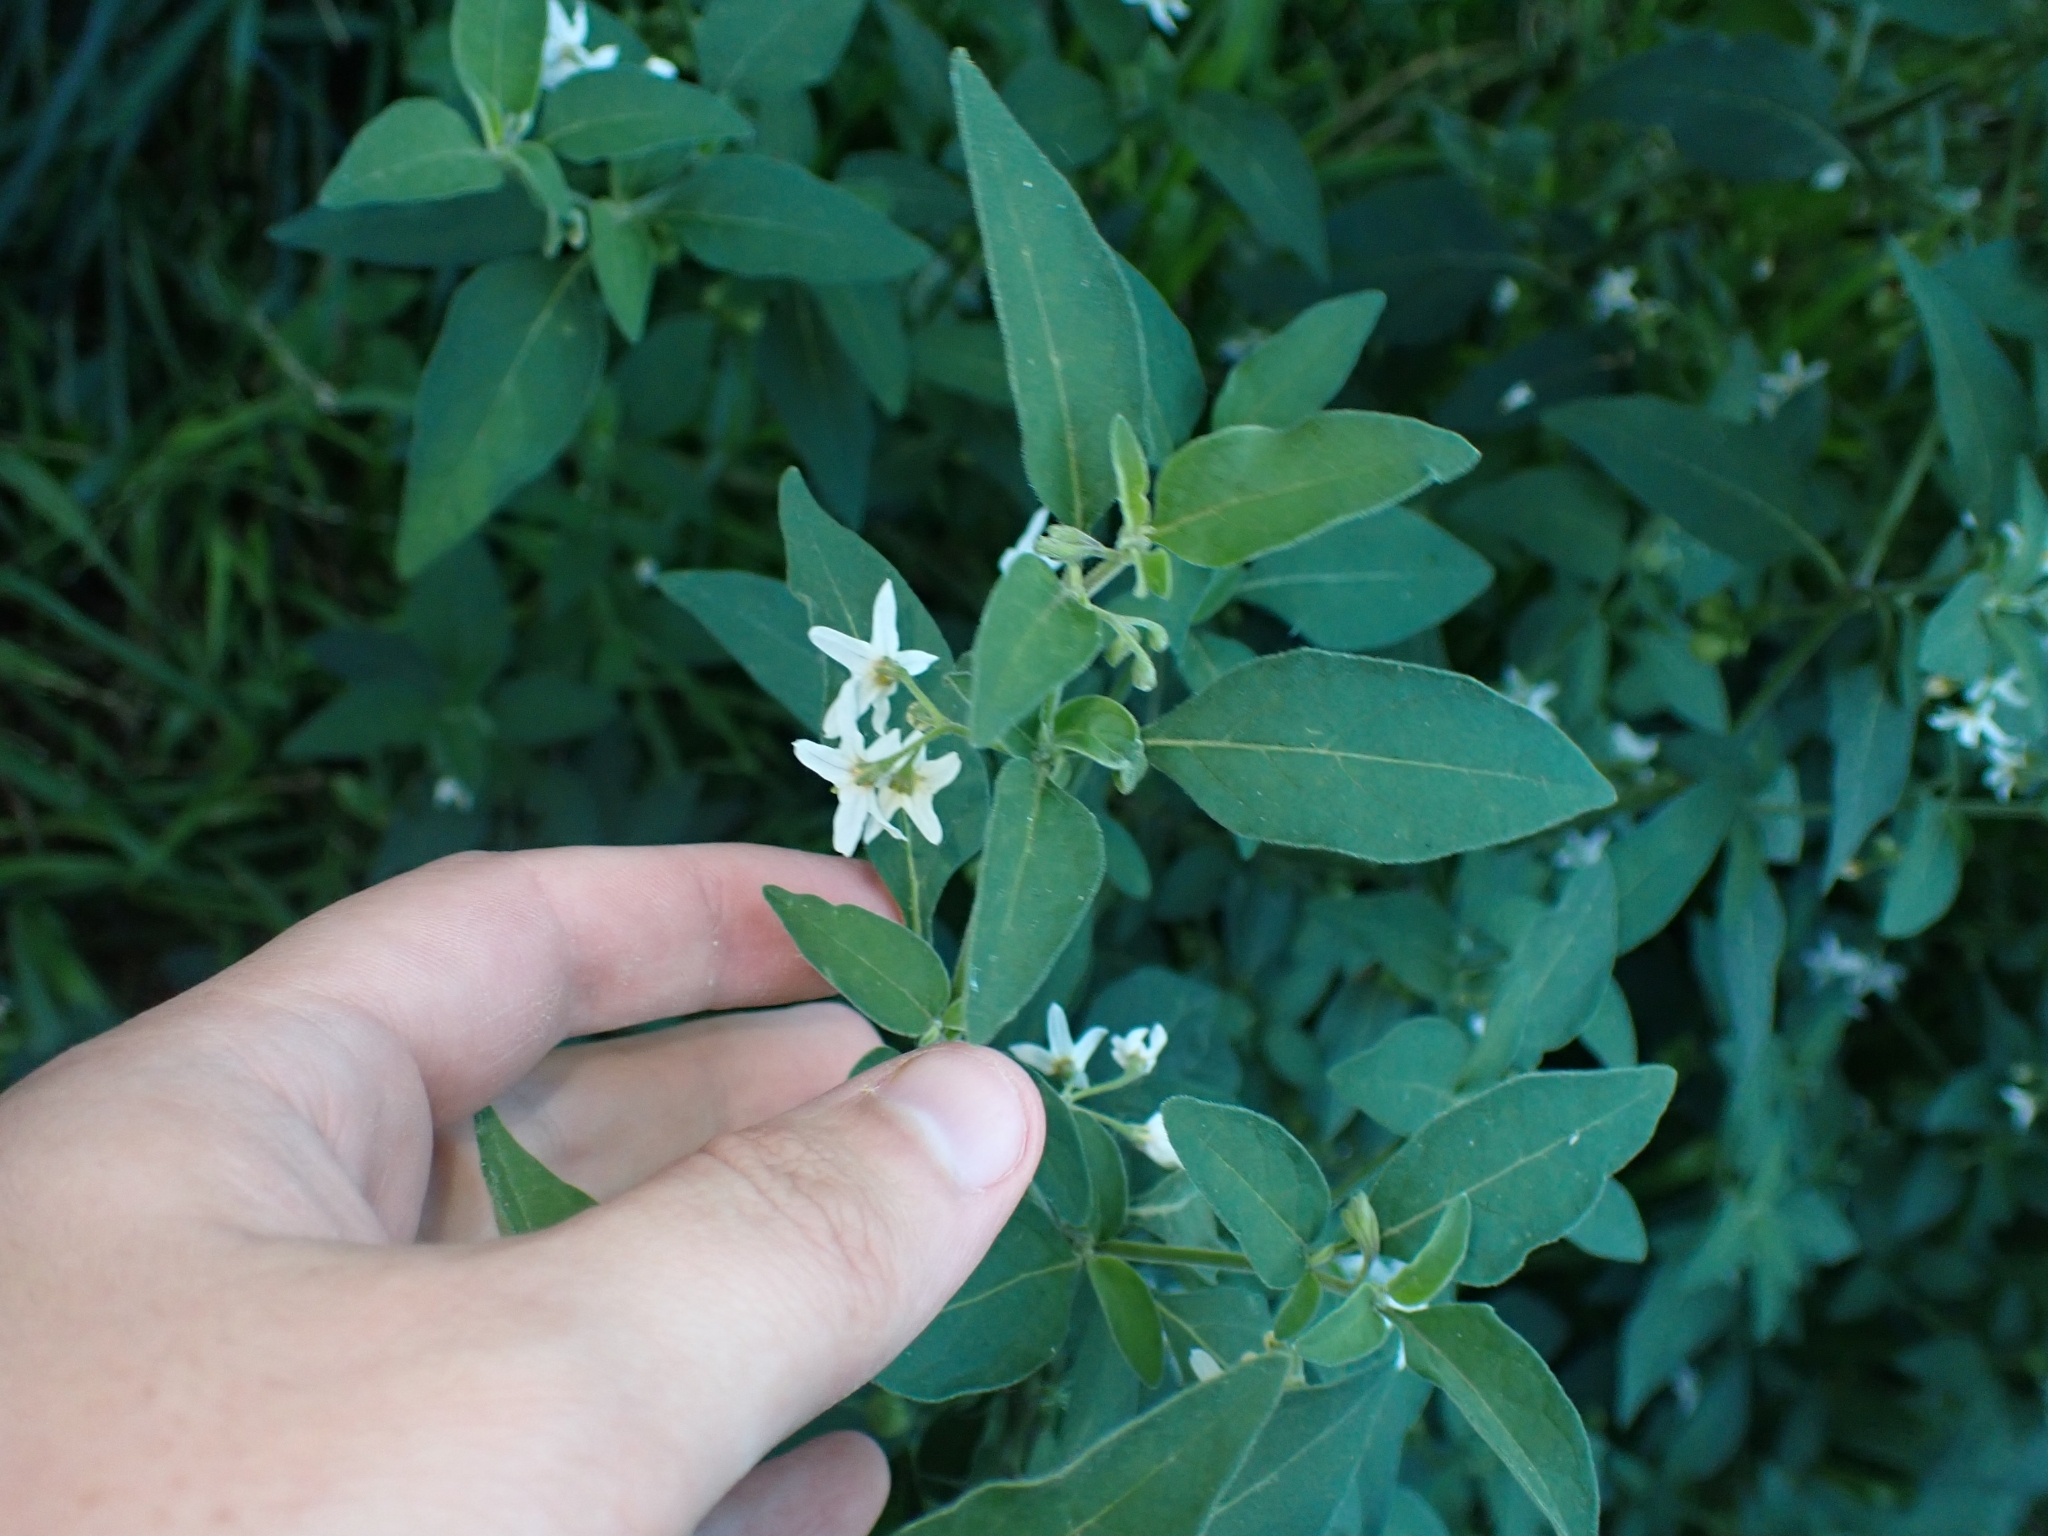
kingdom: Plantae
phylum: Tracheophyta
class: Magnoliopsida
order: Solanales
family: Solanaceae
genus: Solanum
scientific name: Solanum chenopodioides
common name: Tall nightshade
